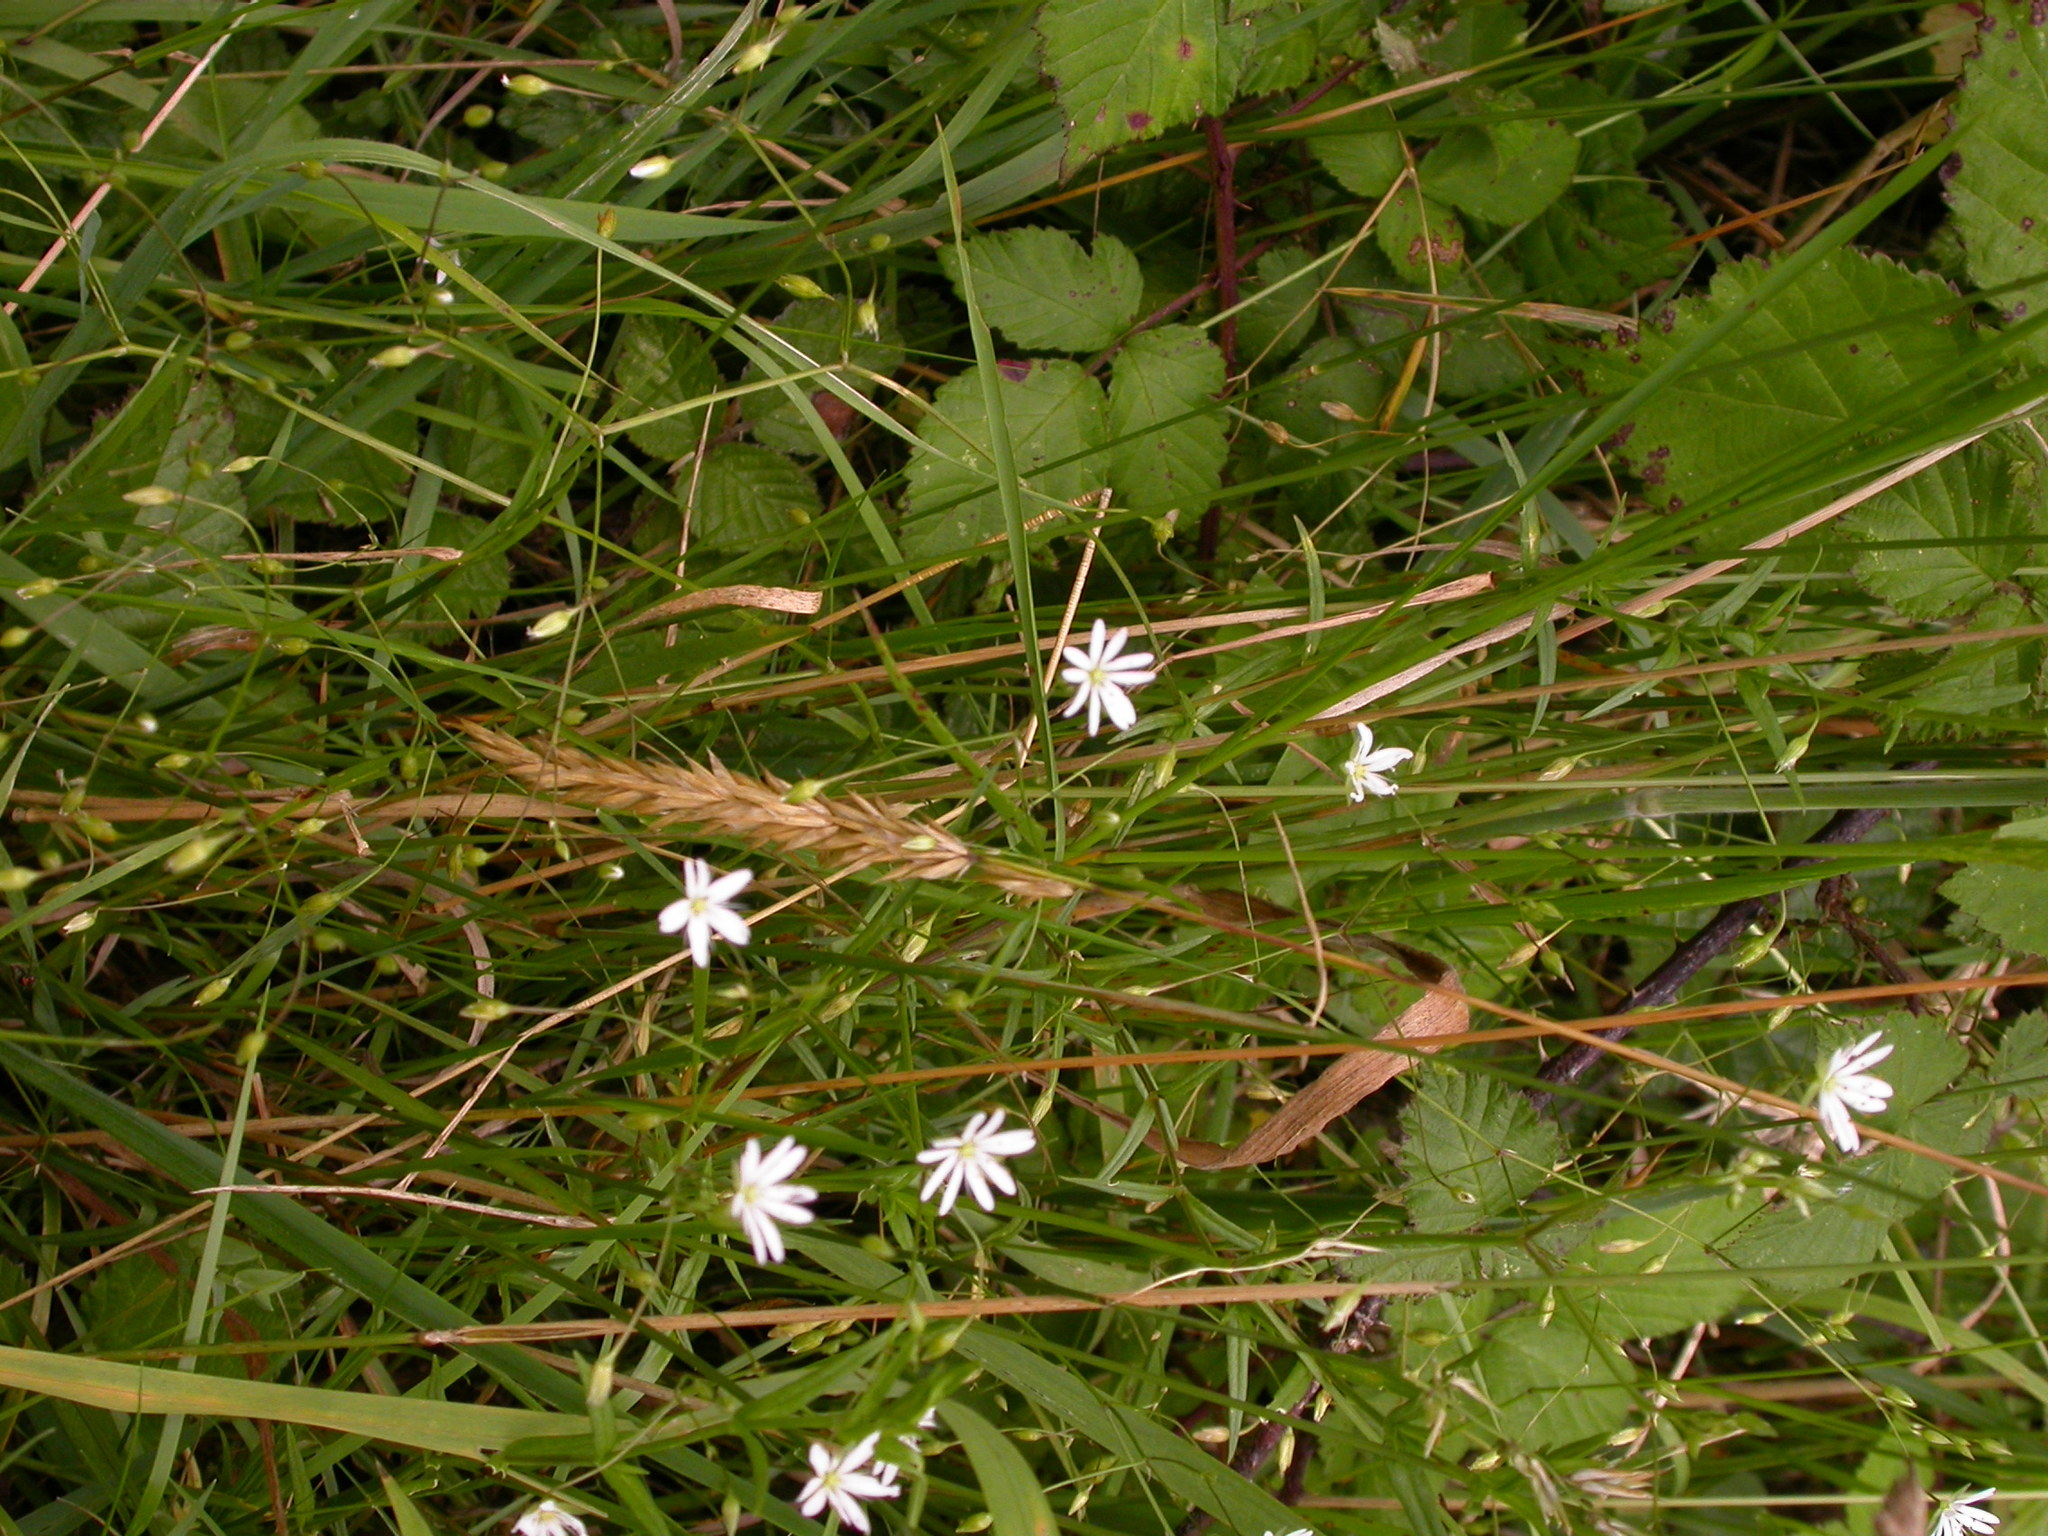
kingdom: Plantae
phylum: Tracheophyta
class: Magnoliopsida
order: Caryophyllales
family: Caryophyllaceae
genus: Stellaria
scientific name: Stellaria graminea
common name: Grass-like starwort
